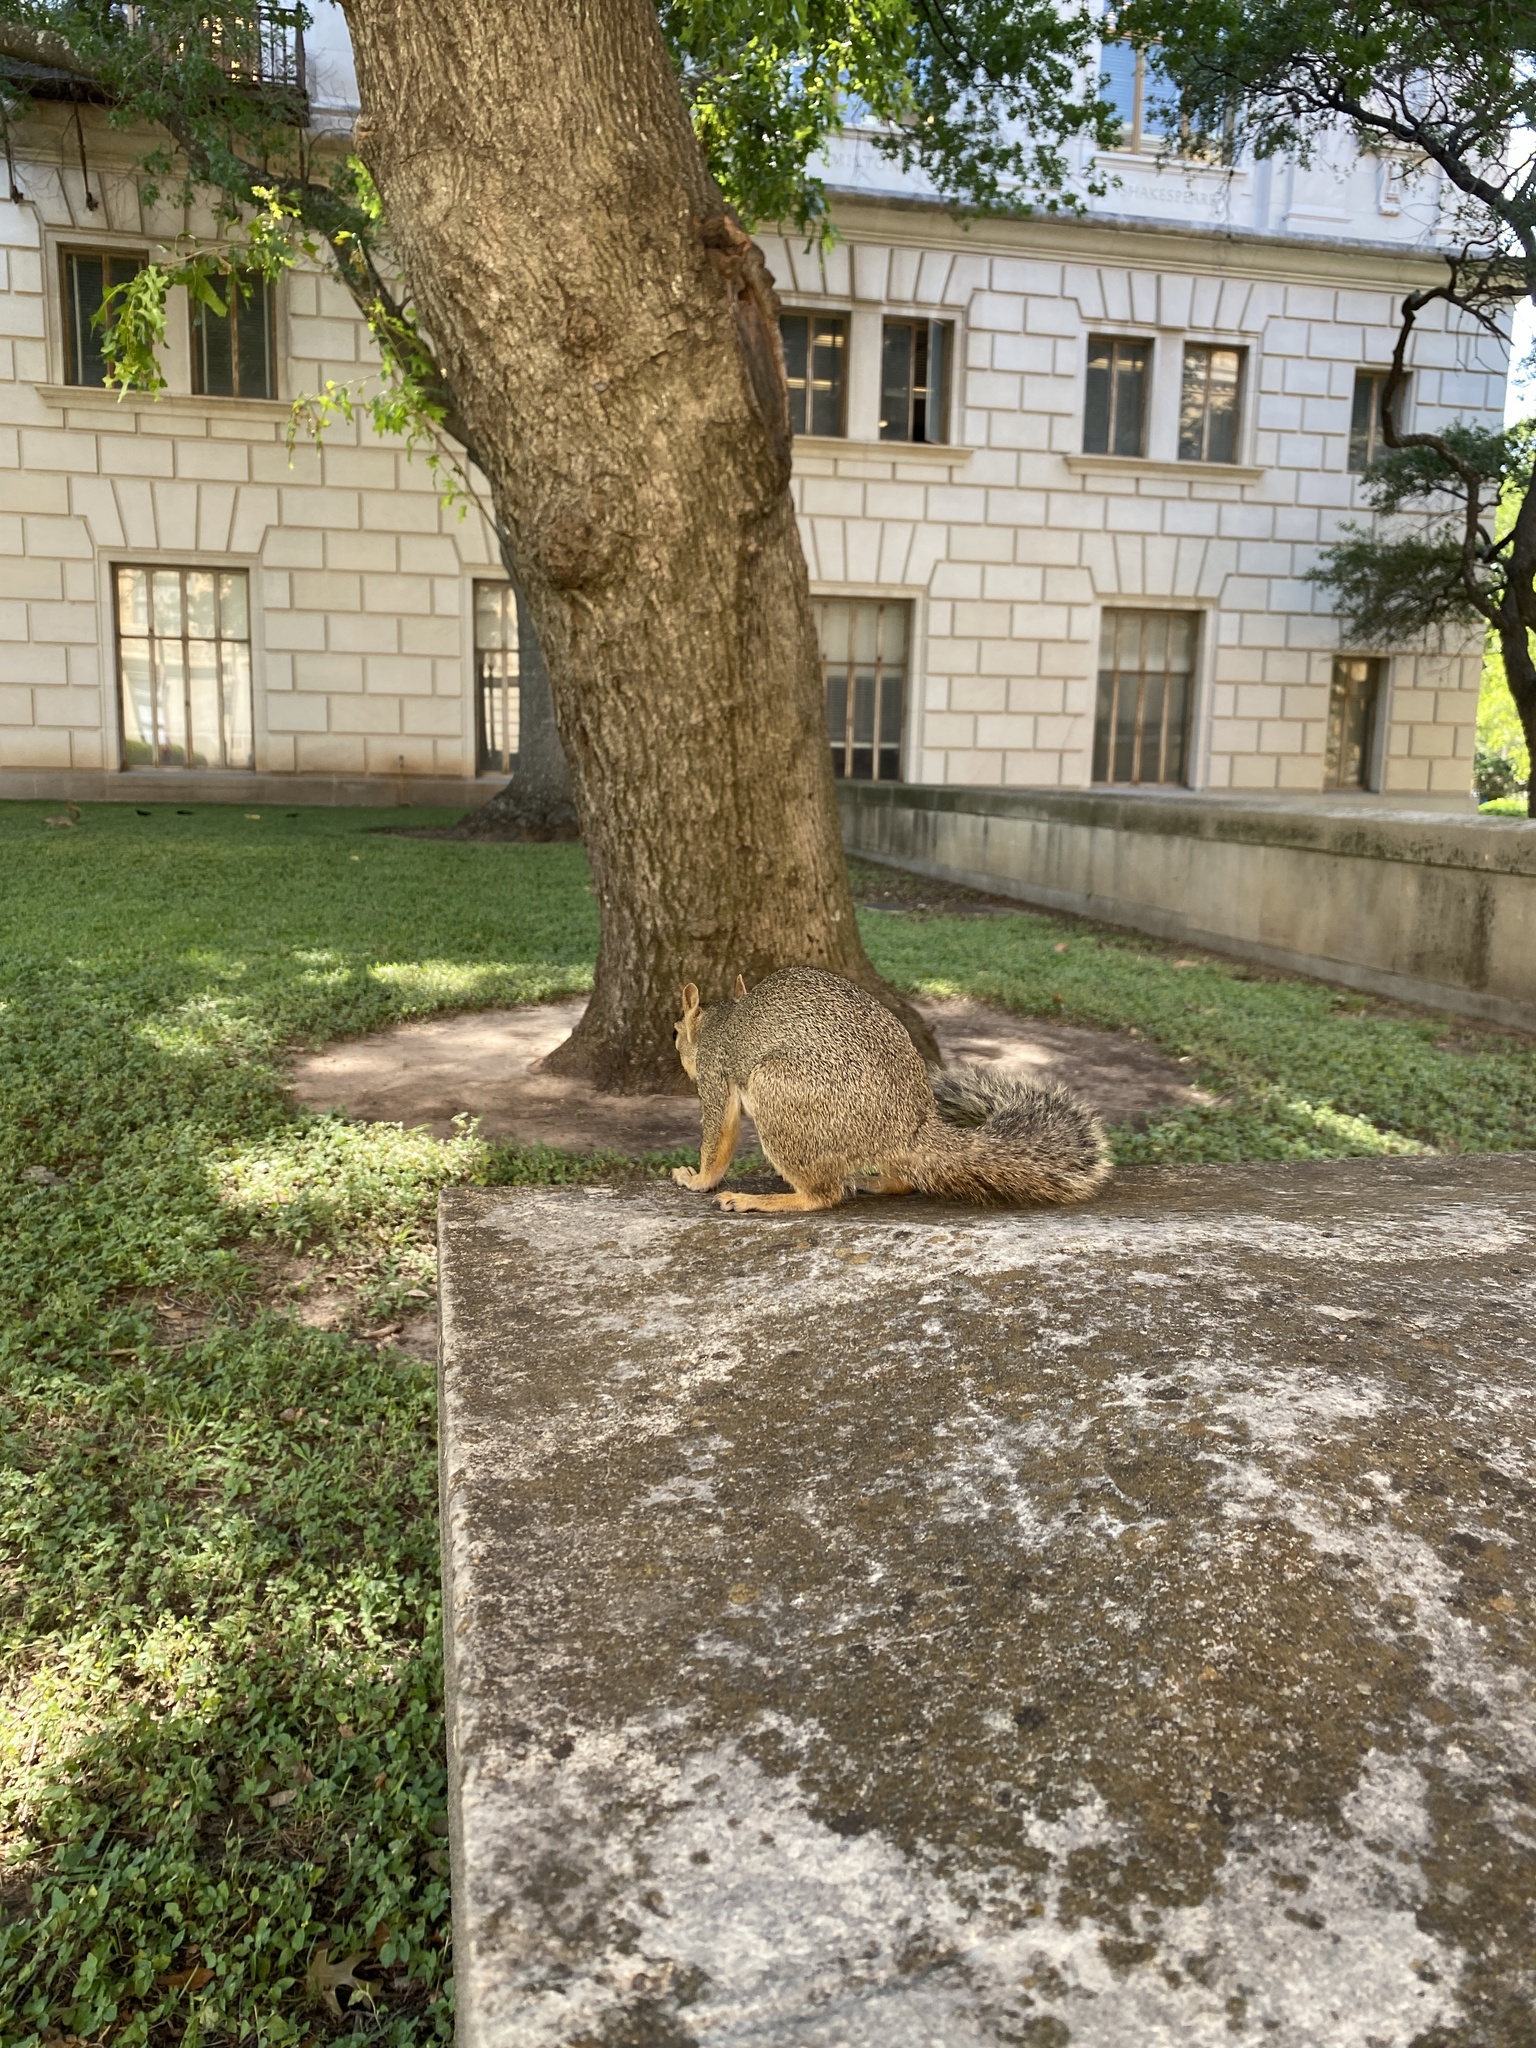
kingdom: Animalia
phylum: Chordata
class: Mammalia
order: Rodentia
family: Sciuridae
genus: Sciurus
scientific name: Sciurus niger
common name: Fox squirrel
